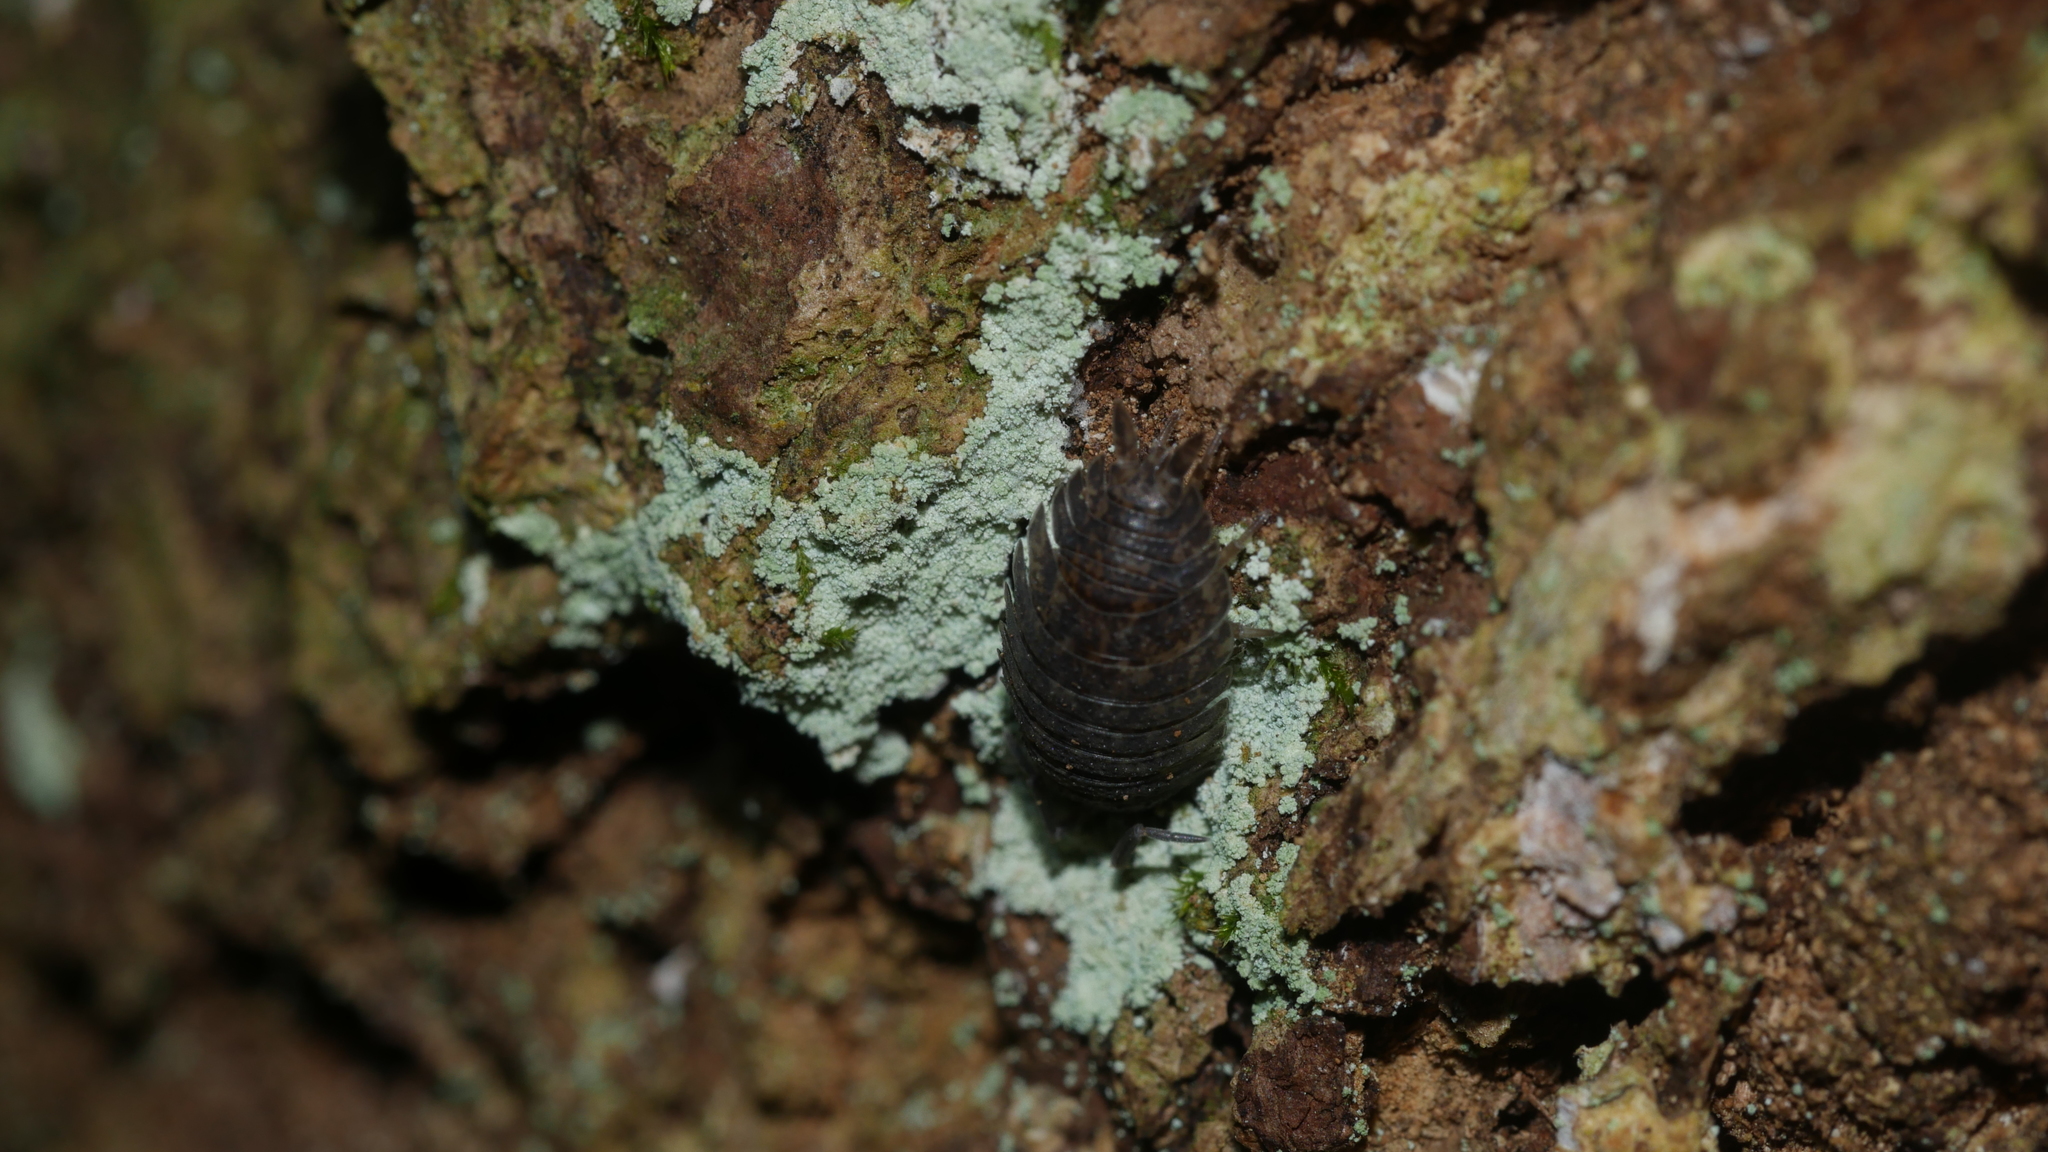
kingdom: Animalia
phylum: Arthropoda
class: Malacostraca
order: Isopoda
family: Porcellionidae
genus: Porcellio
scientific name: Porcellio scaber
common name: Common rough woodlouse
